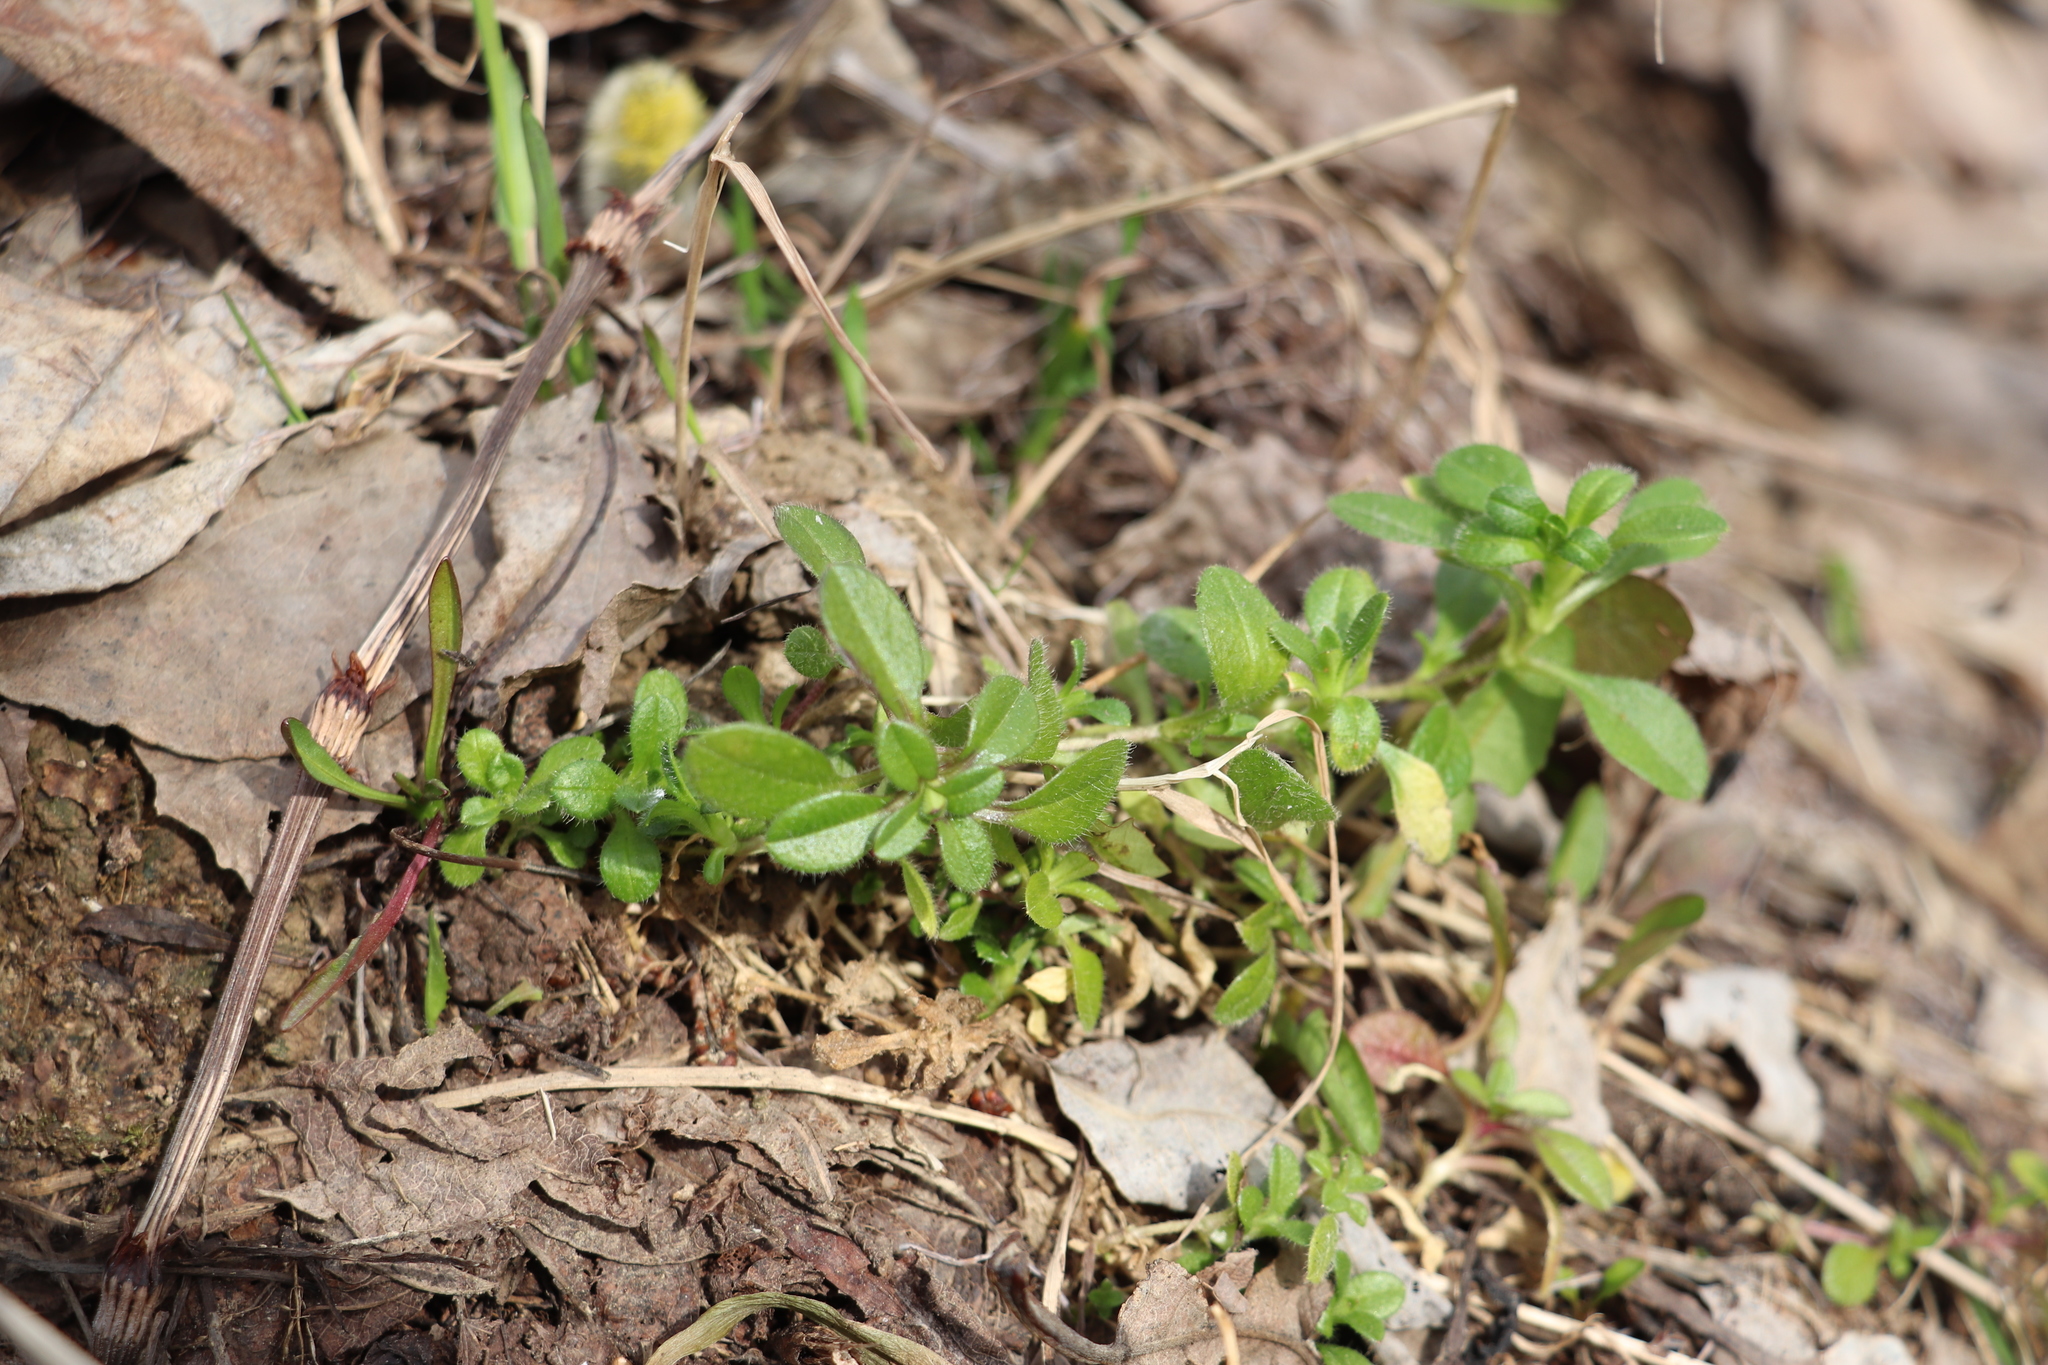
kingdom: Plantae
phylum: Tracheophyta
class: Magnoliopsida
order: Caryophyllales
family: Caryophyllaceae
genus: Cerastium
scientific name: Cerastium holosteoides
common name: Big chickweed
